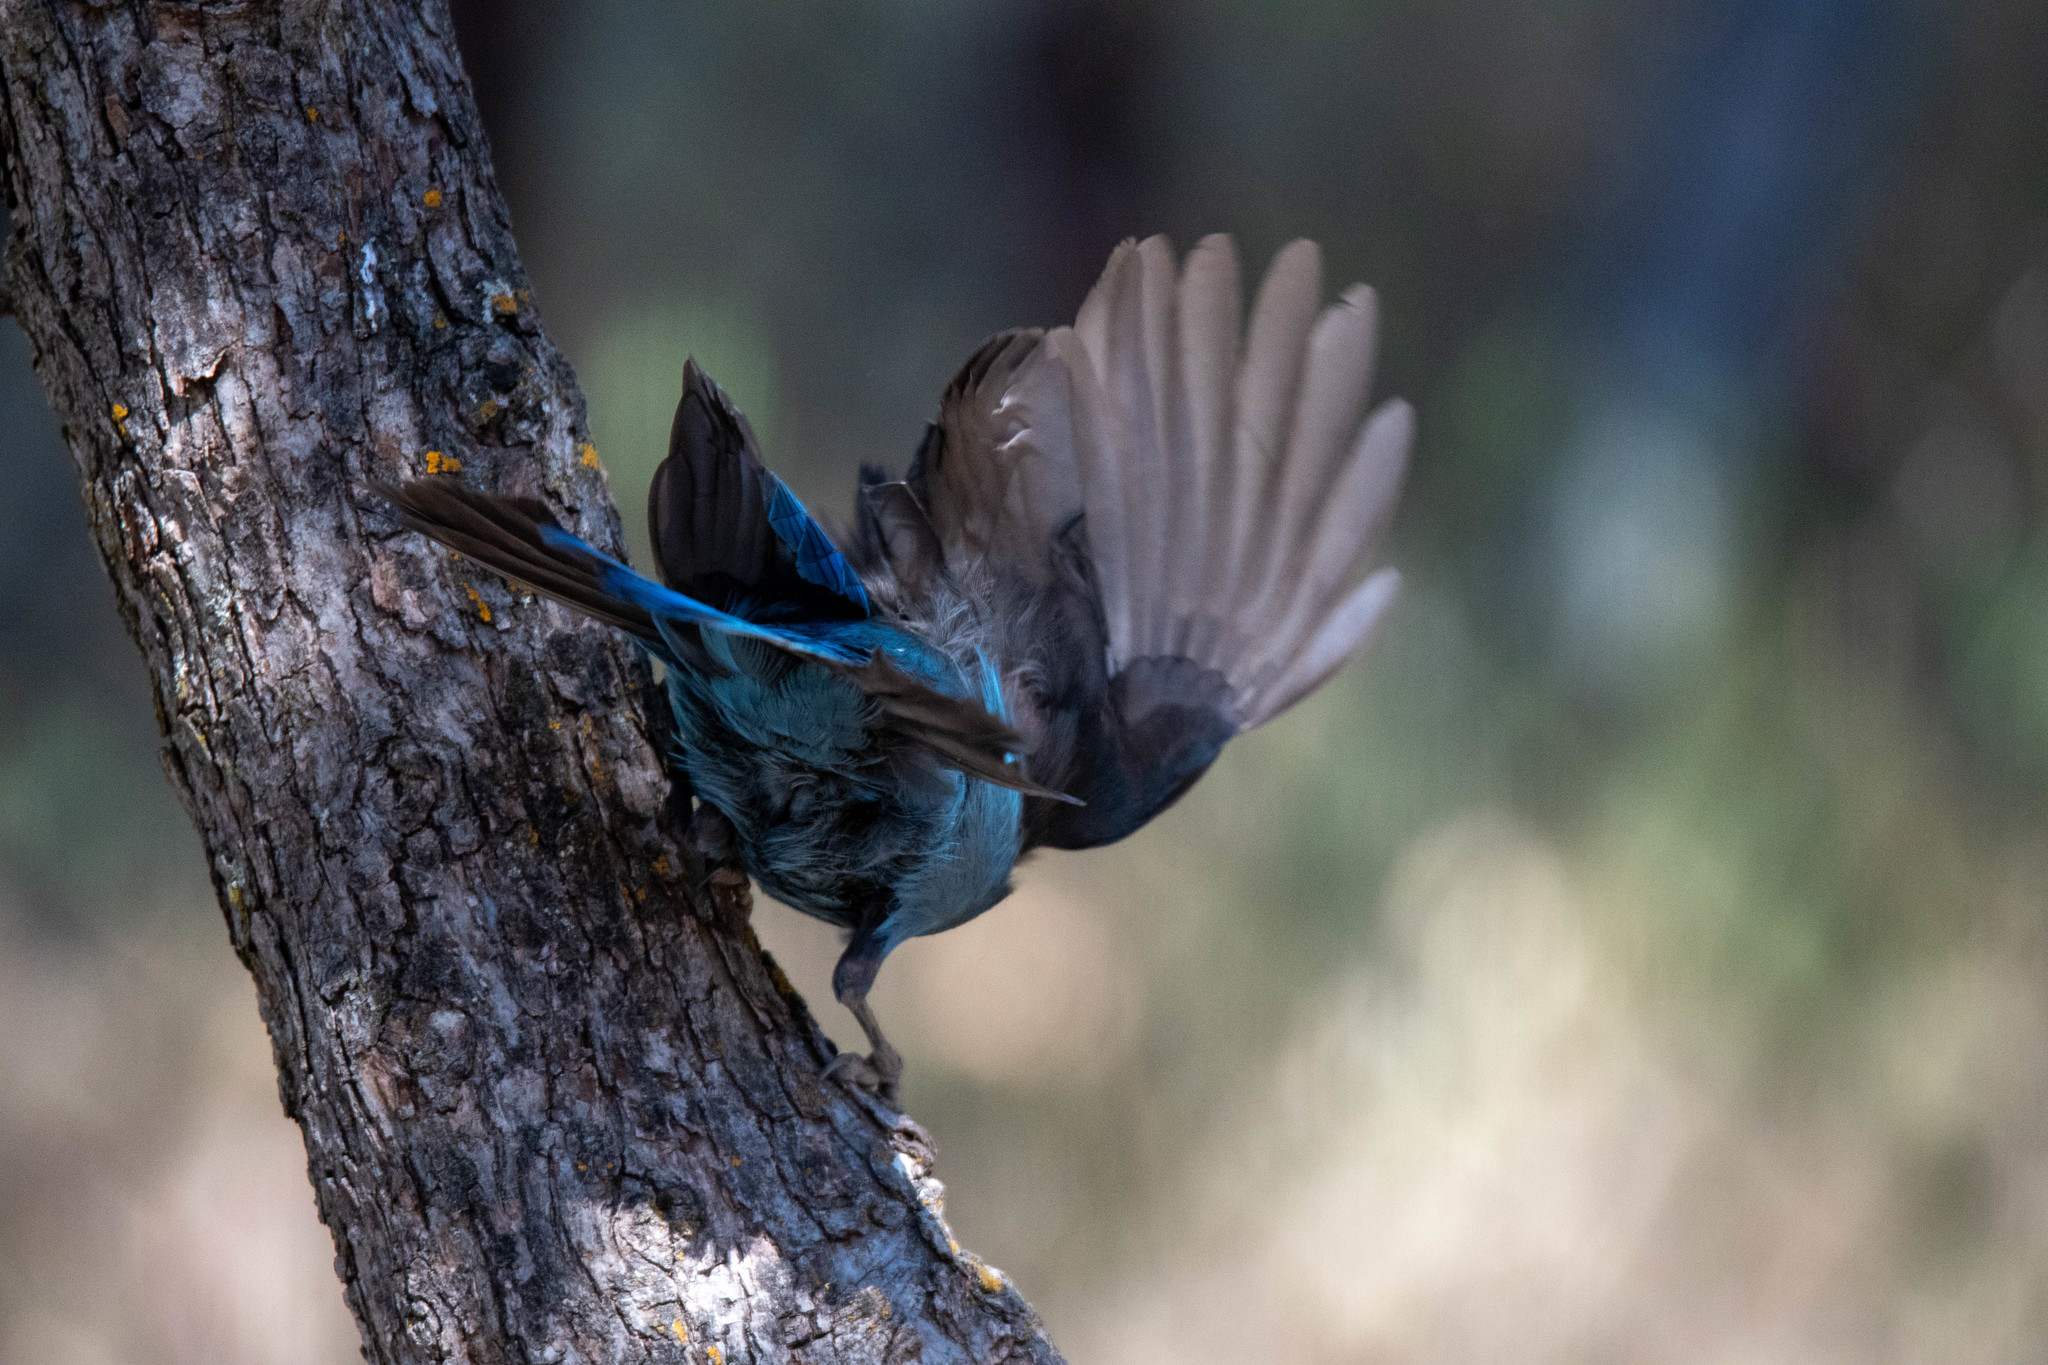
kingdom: Animalia
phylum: Chordata
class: Aves
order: Passeriformes
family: Corvidae
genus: Cyanocitta
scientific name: Cyanocitta stelleri
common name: Steller's jay
